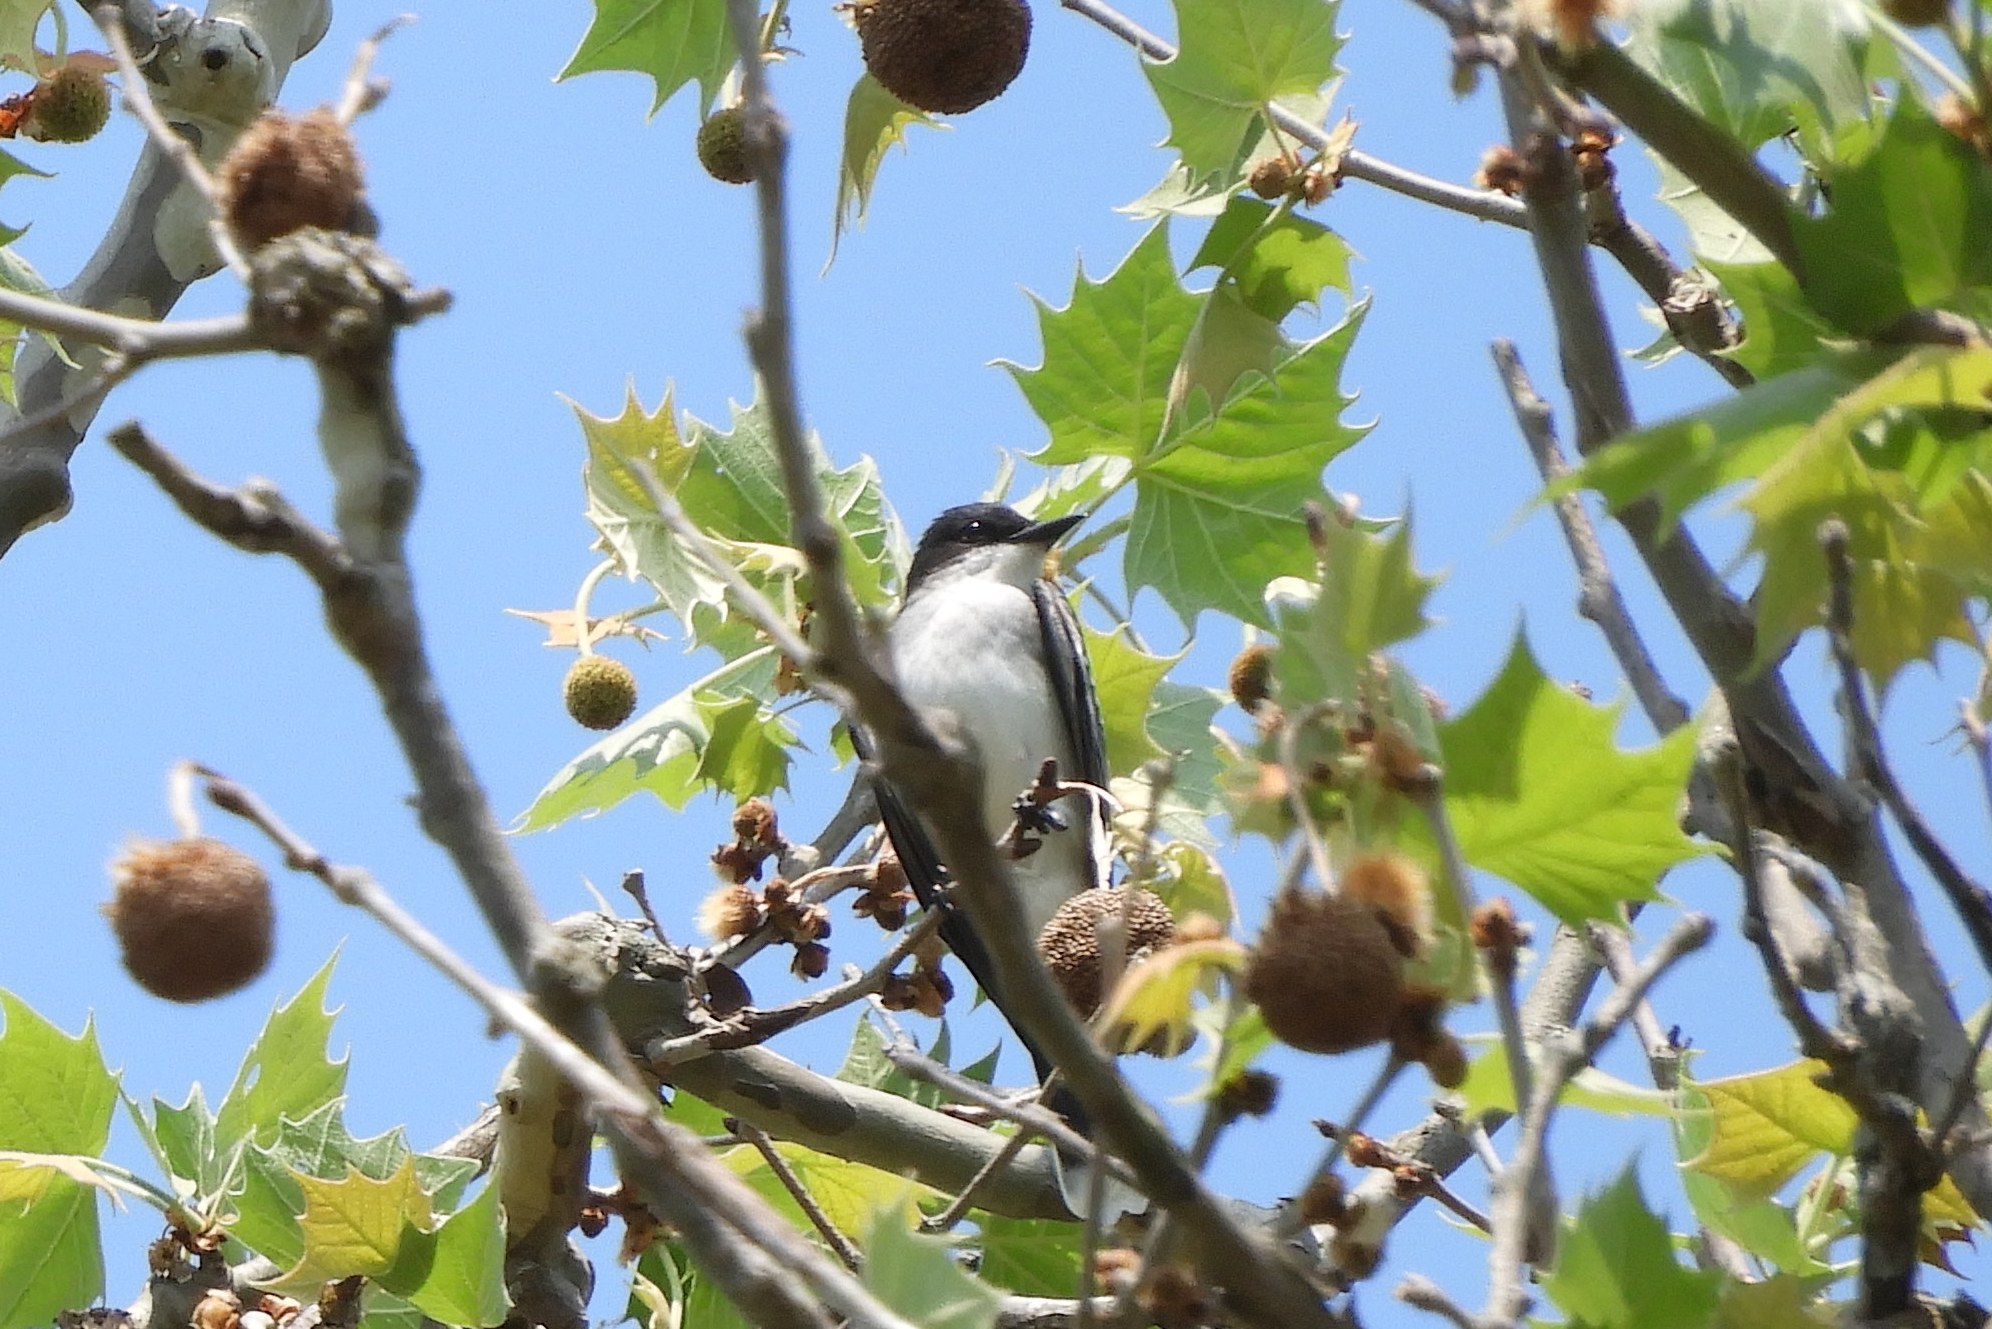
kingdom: Animalia
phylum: Chordata
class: Aves
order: Passeriformes
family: Tyrannidae
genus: Tyrannus
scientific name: Tyrannus tyrannus
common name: Eastern kingbird
